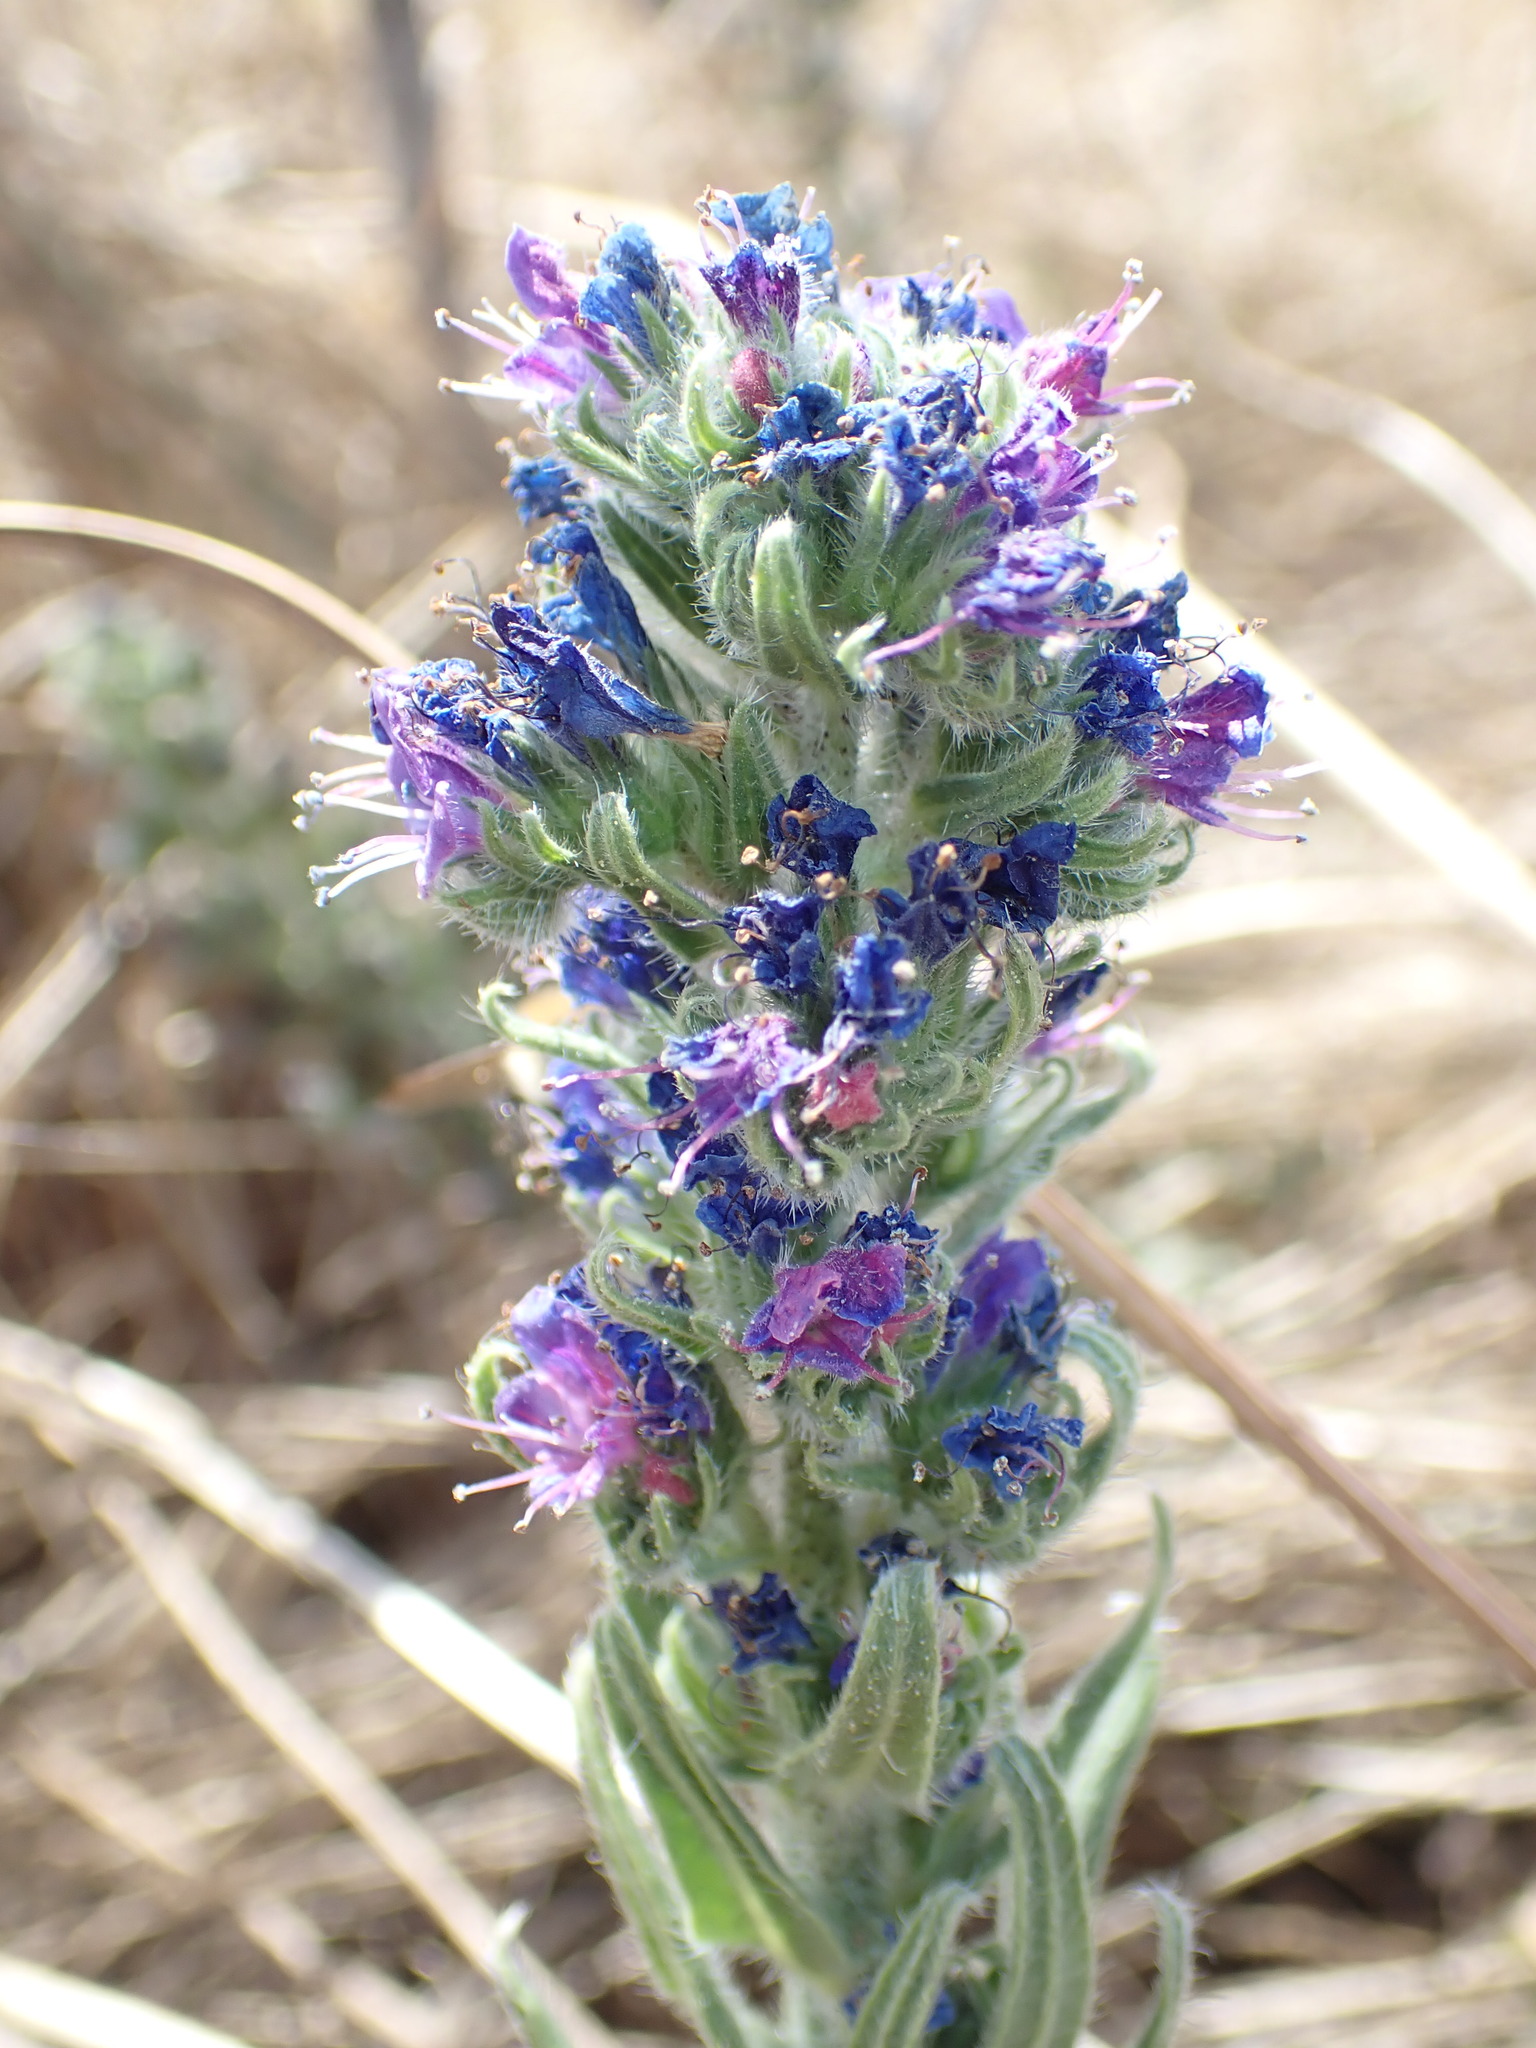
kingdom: Plantae
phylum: Tracheophyta
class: Magnoliopsida
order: Boraginales
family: Boraginaceae
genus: Echium
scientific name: Echium vulgare
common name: Common viper's bugloss
